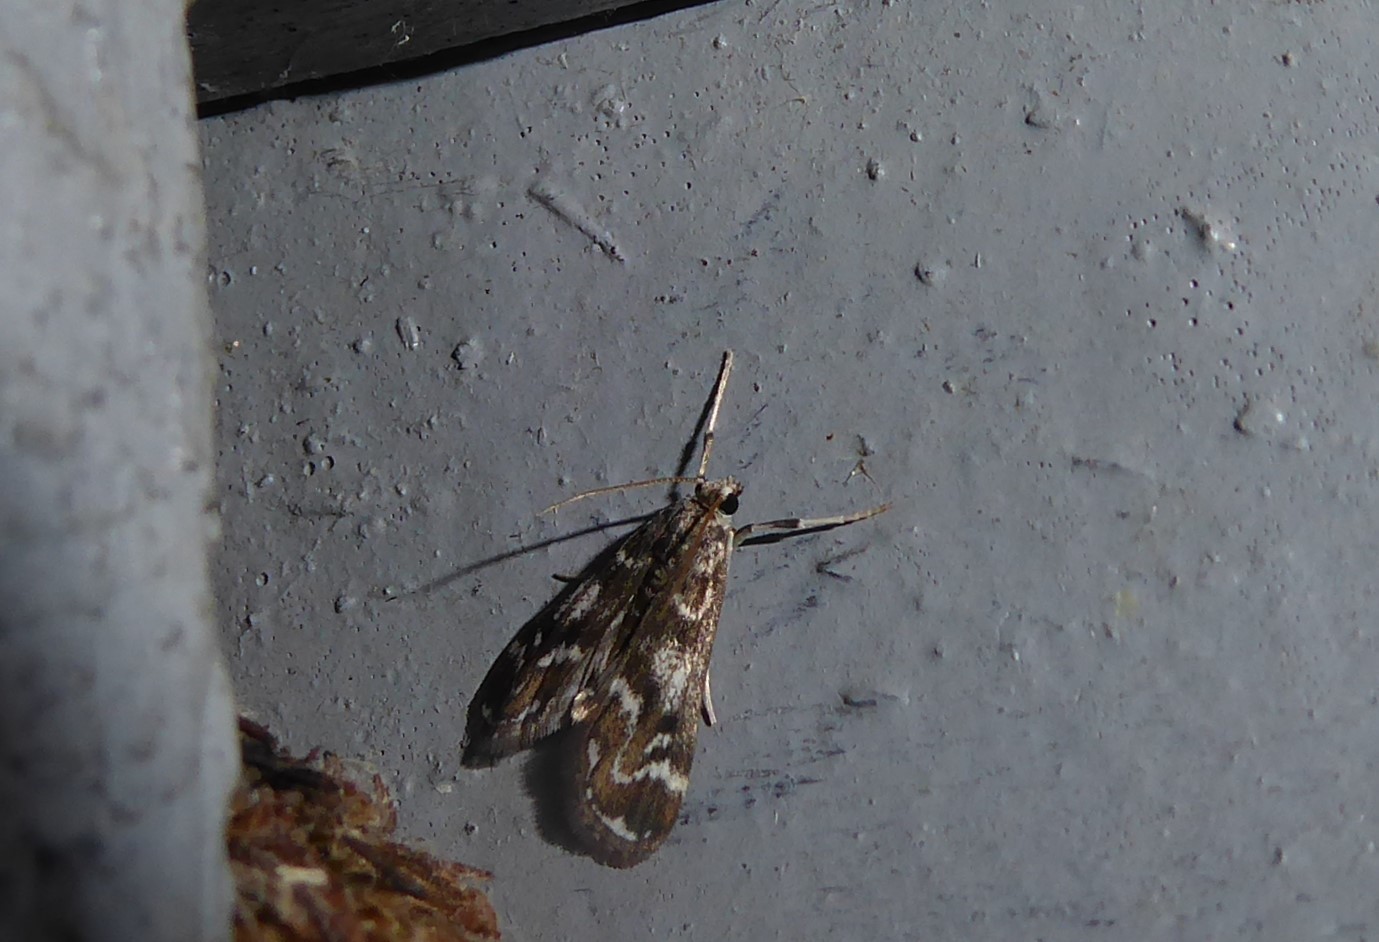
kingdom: Animalia
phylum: Arthropoda
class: Insecta
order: Lepidoptera
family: Crambidae
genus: Hygraula
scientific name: Hygraula nitens
